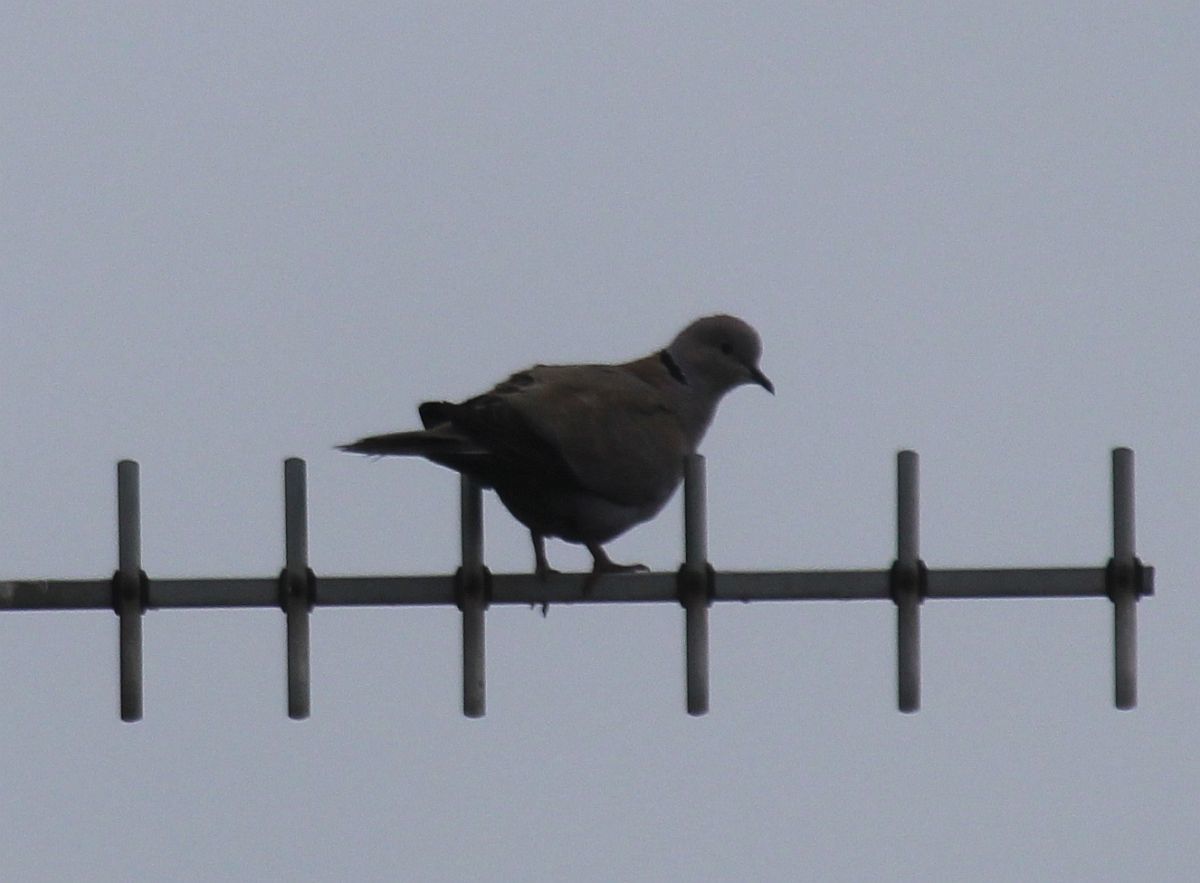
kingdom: Animalia
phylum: Chordata
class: Aves
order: Columbiformes
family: Columbidae
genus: Streptopelia
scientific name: Streptopelia decaocto
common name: Eurasian collared dove
